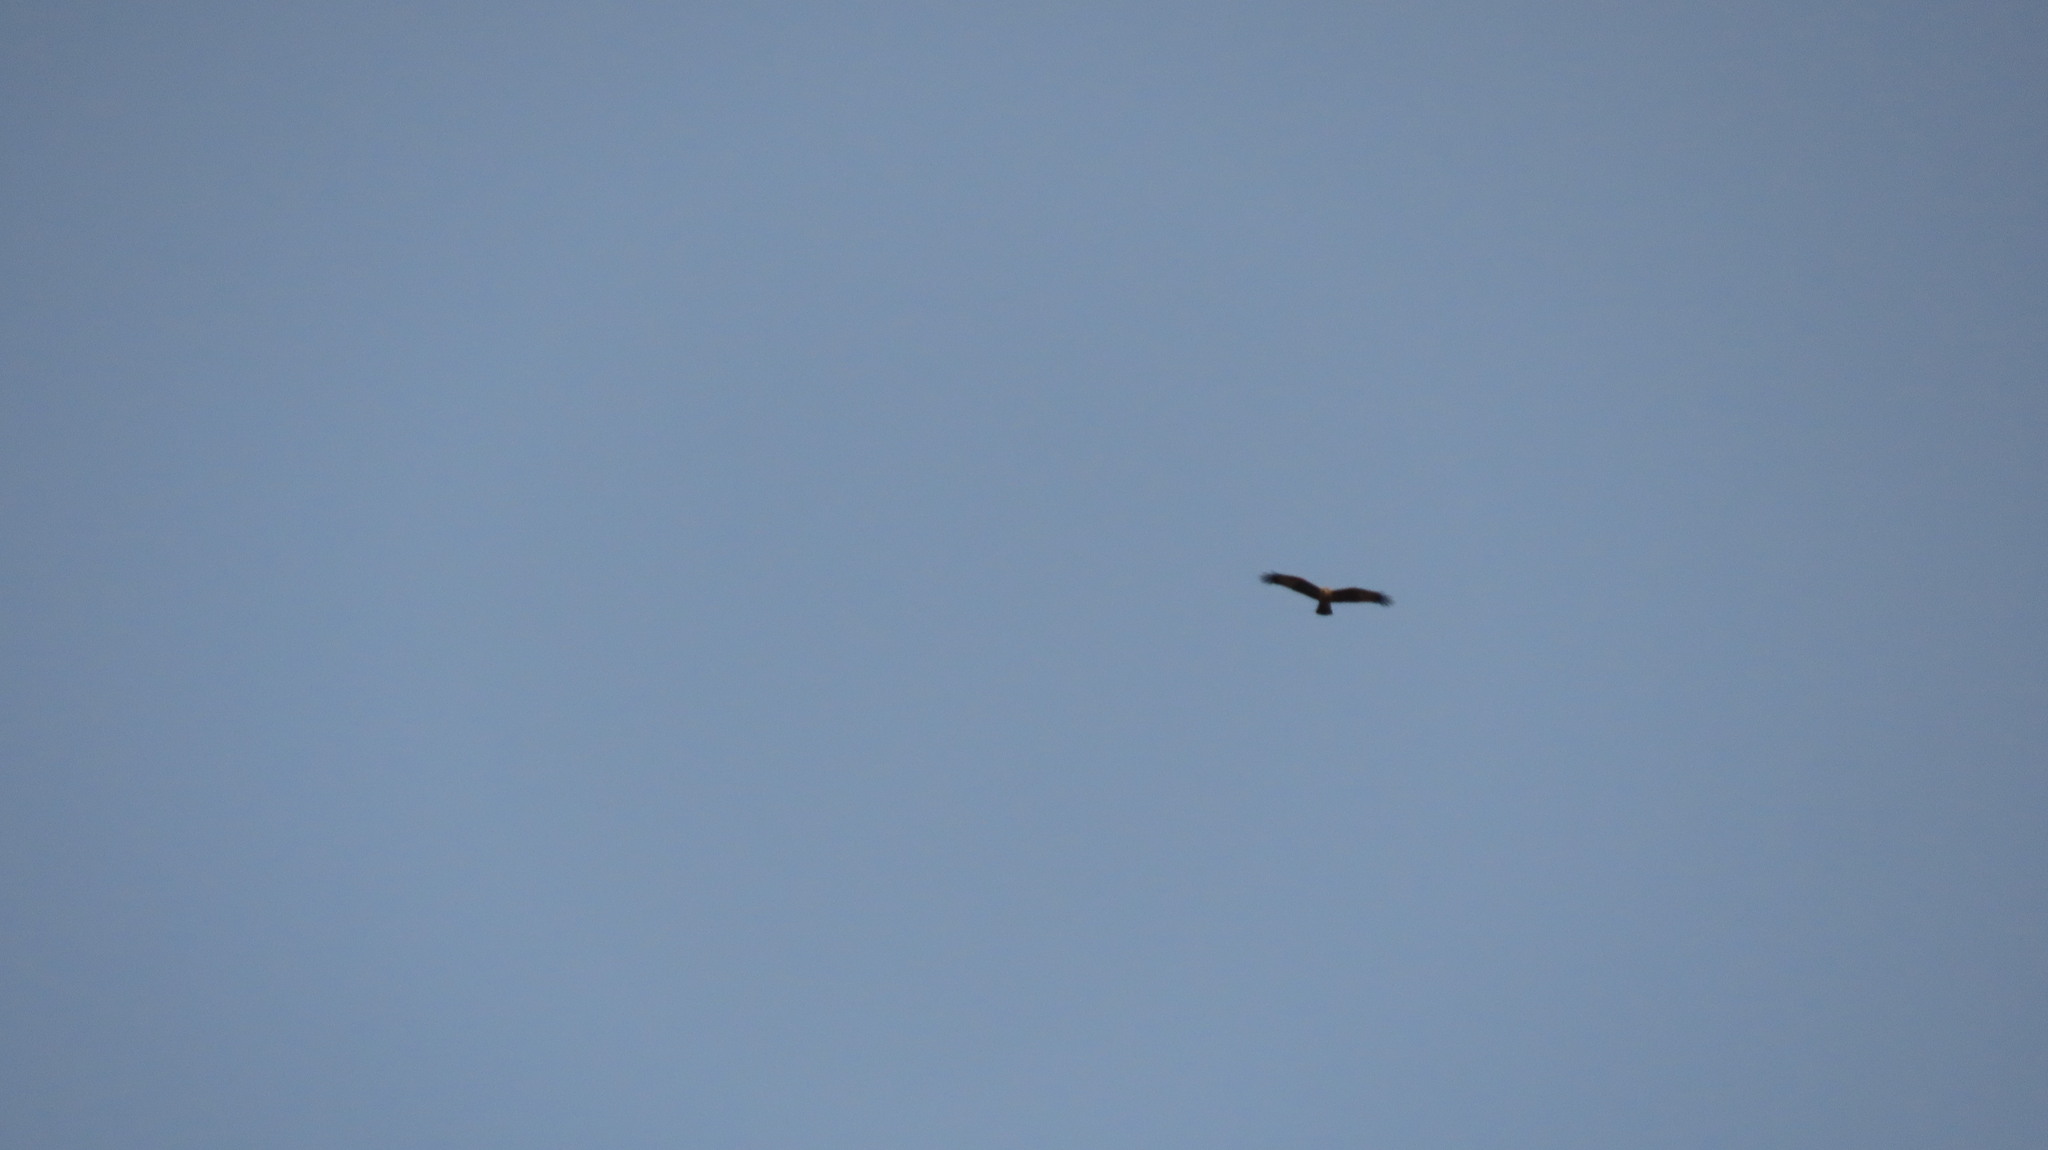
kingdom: Animalia
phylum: Chordata
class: Aves
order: Accipitriformes
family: Accipitridae
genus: Haliastur
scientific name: Haliastur indus
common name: Brahminy kite
